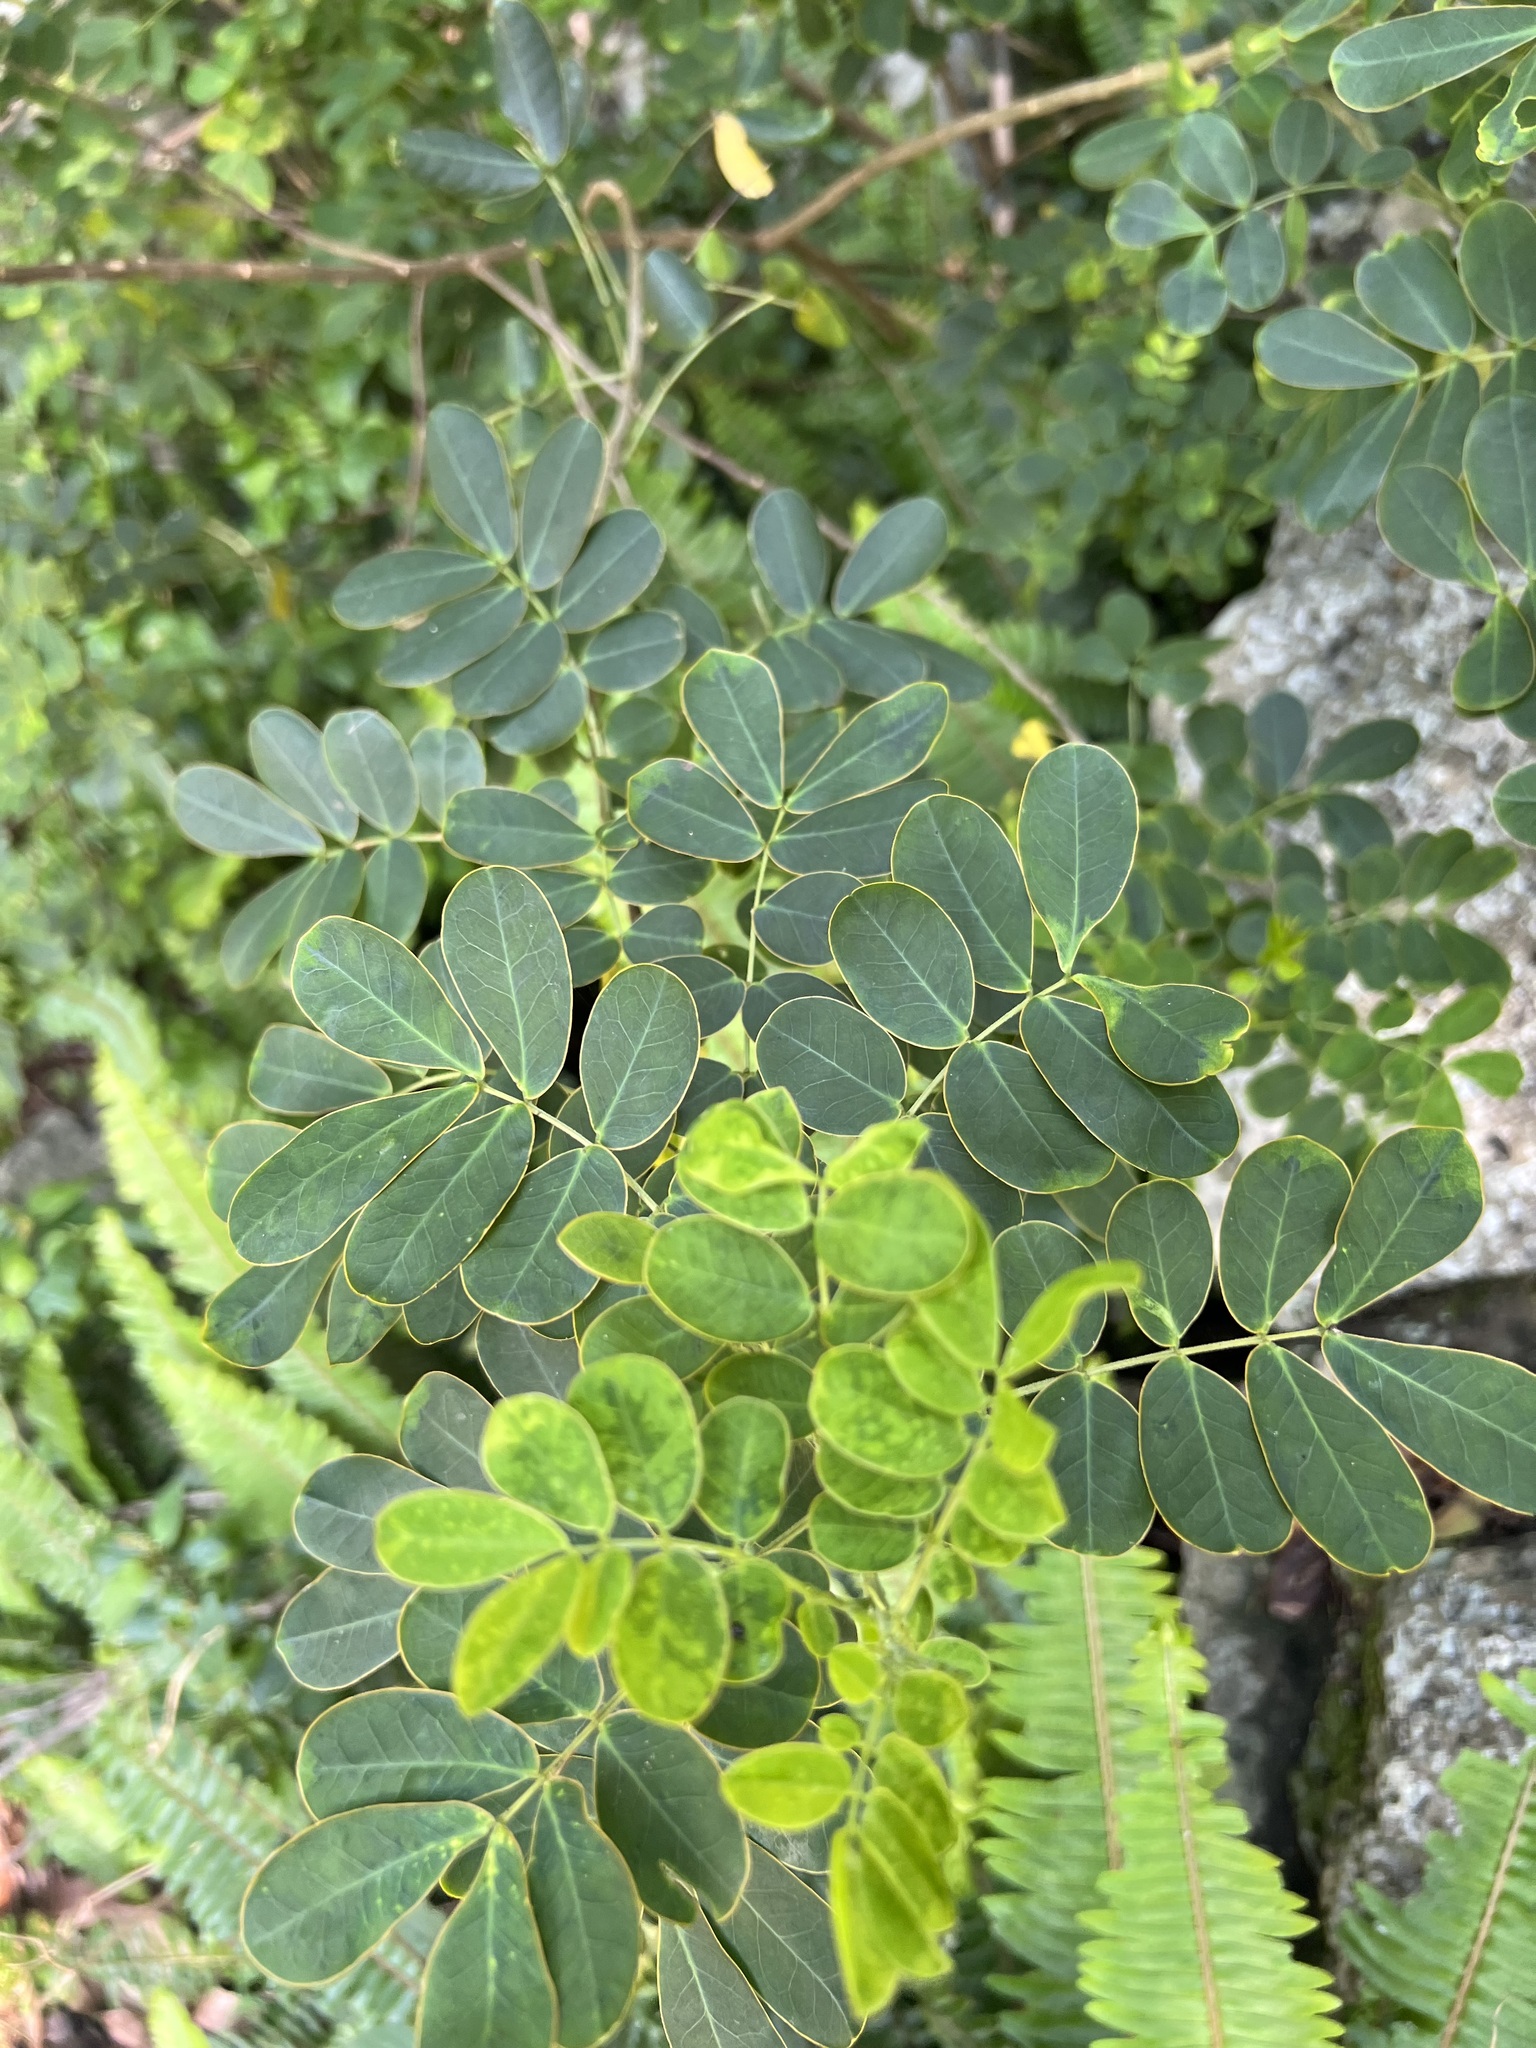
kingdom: Plantae
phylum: Tracheophyta
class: Magnoliopsida
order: Fabales
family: Fabaceae
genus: Senna
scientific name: Senna pendula
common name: Easter cassia
